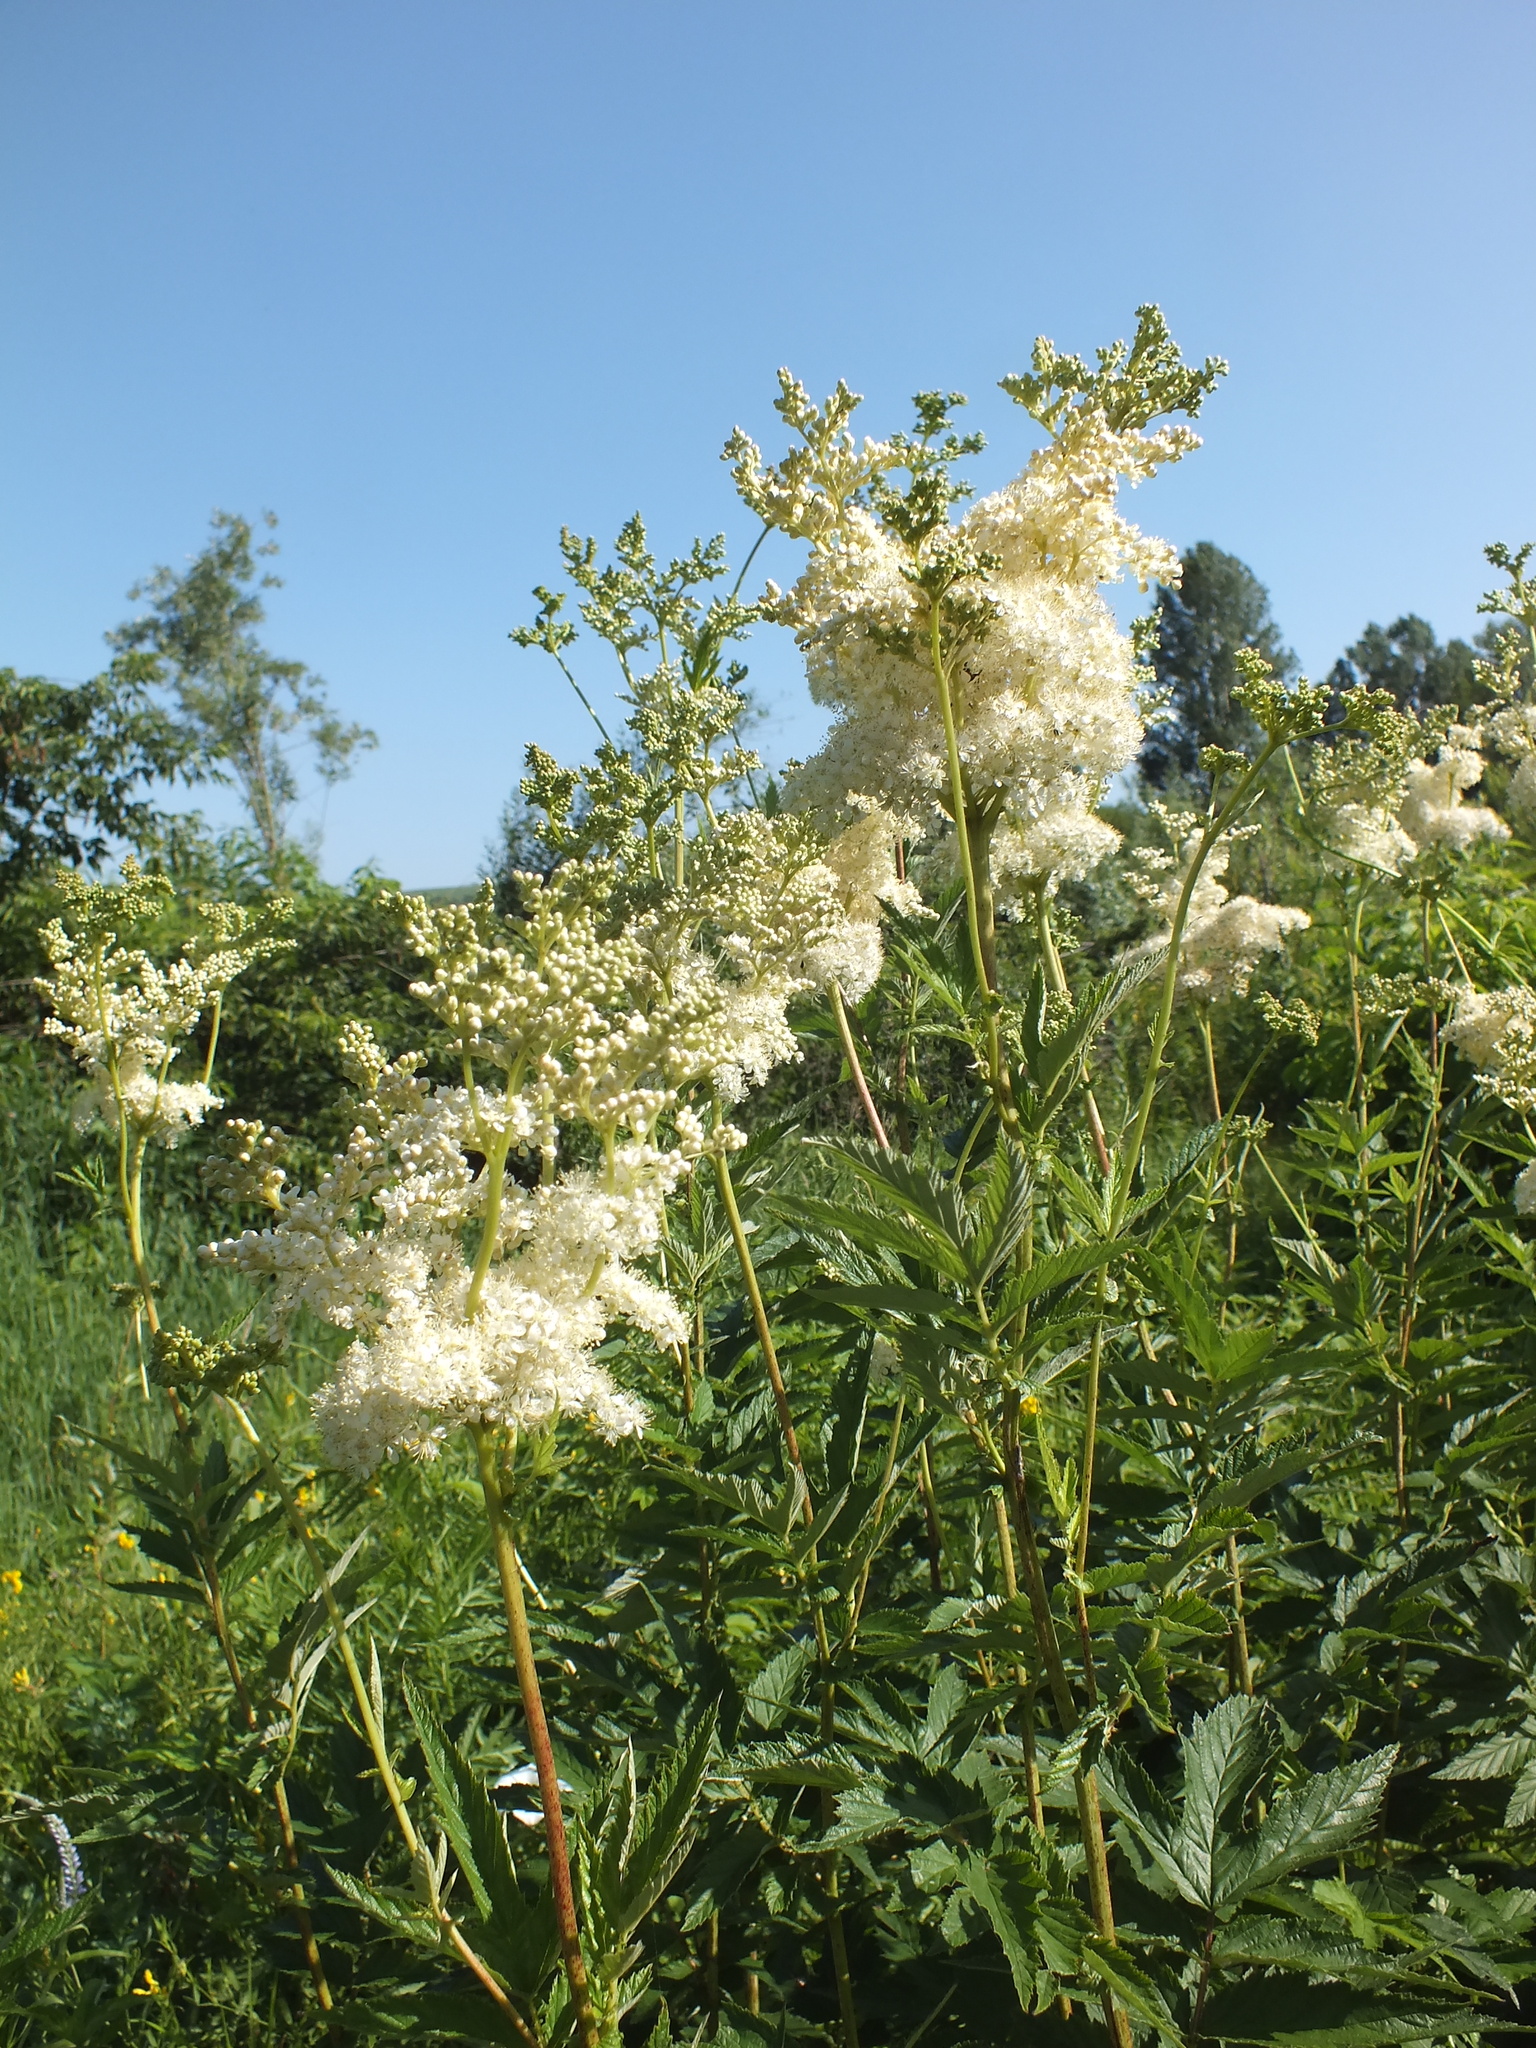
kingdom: Plantae
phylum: Tracheophyta
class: Magnoliopsida
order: Rosales
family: Rosaceae
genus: Filipendula
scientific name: Filipendula ulmaria
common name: Meadowsweet
